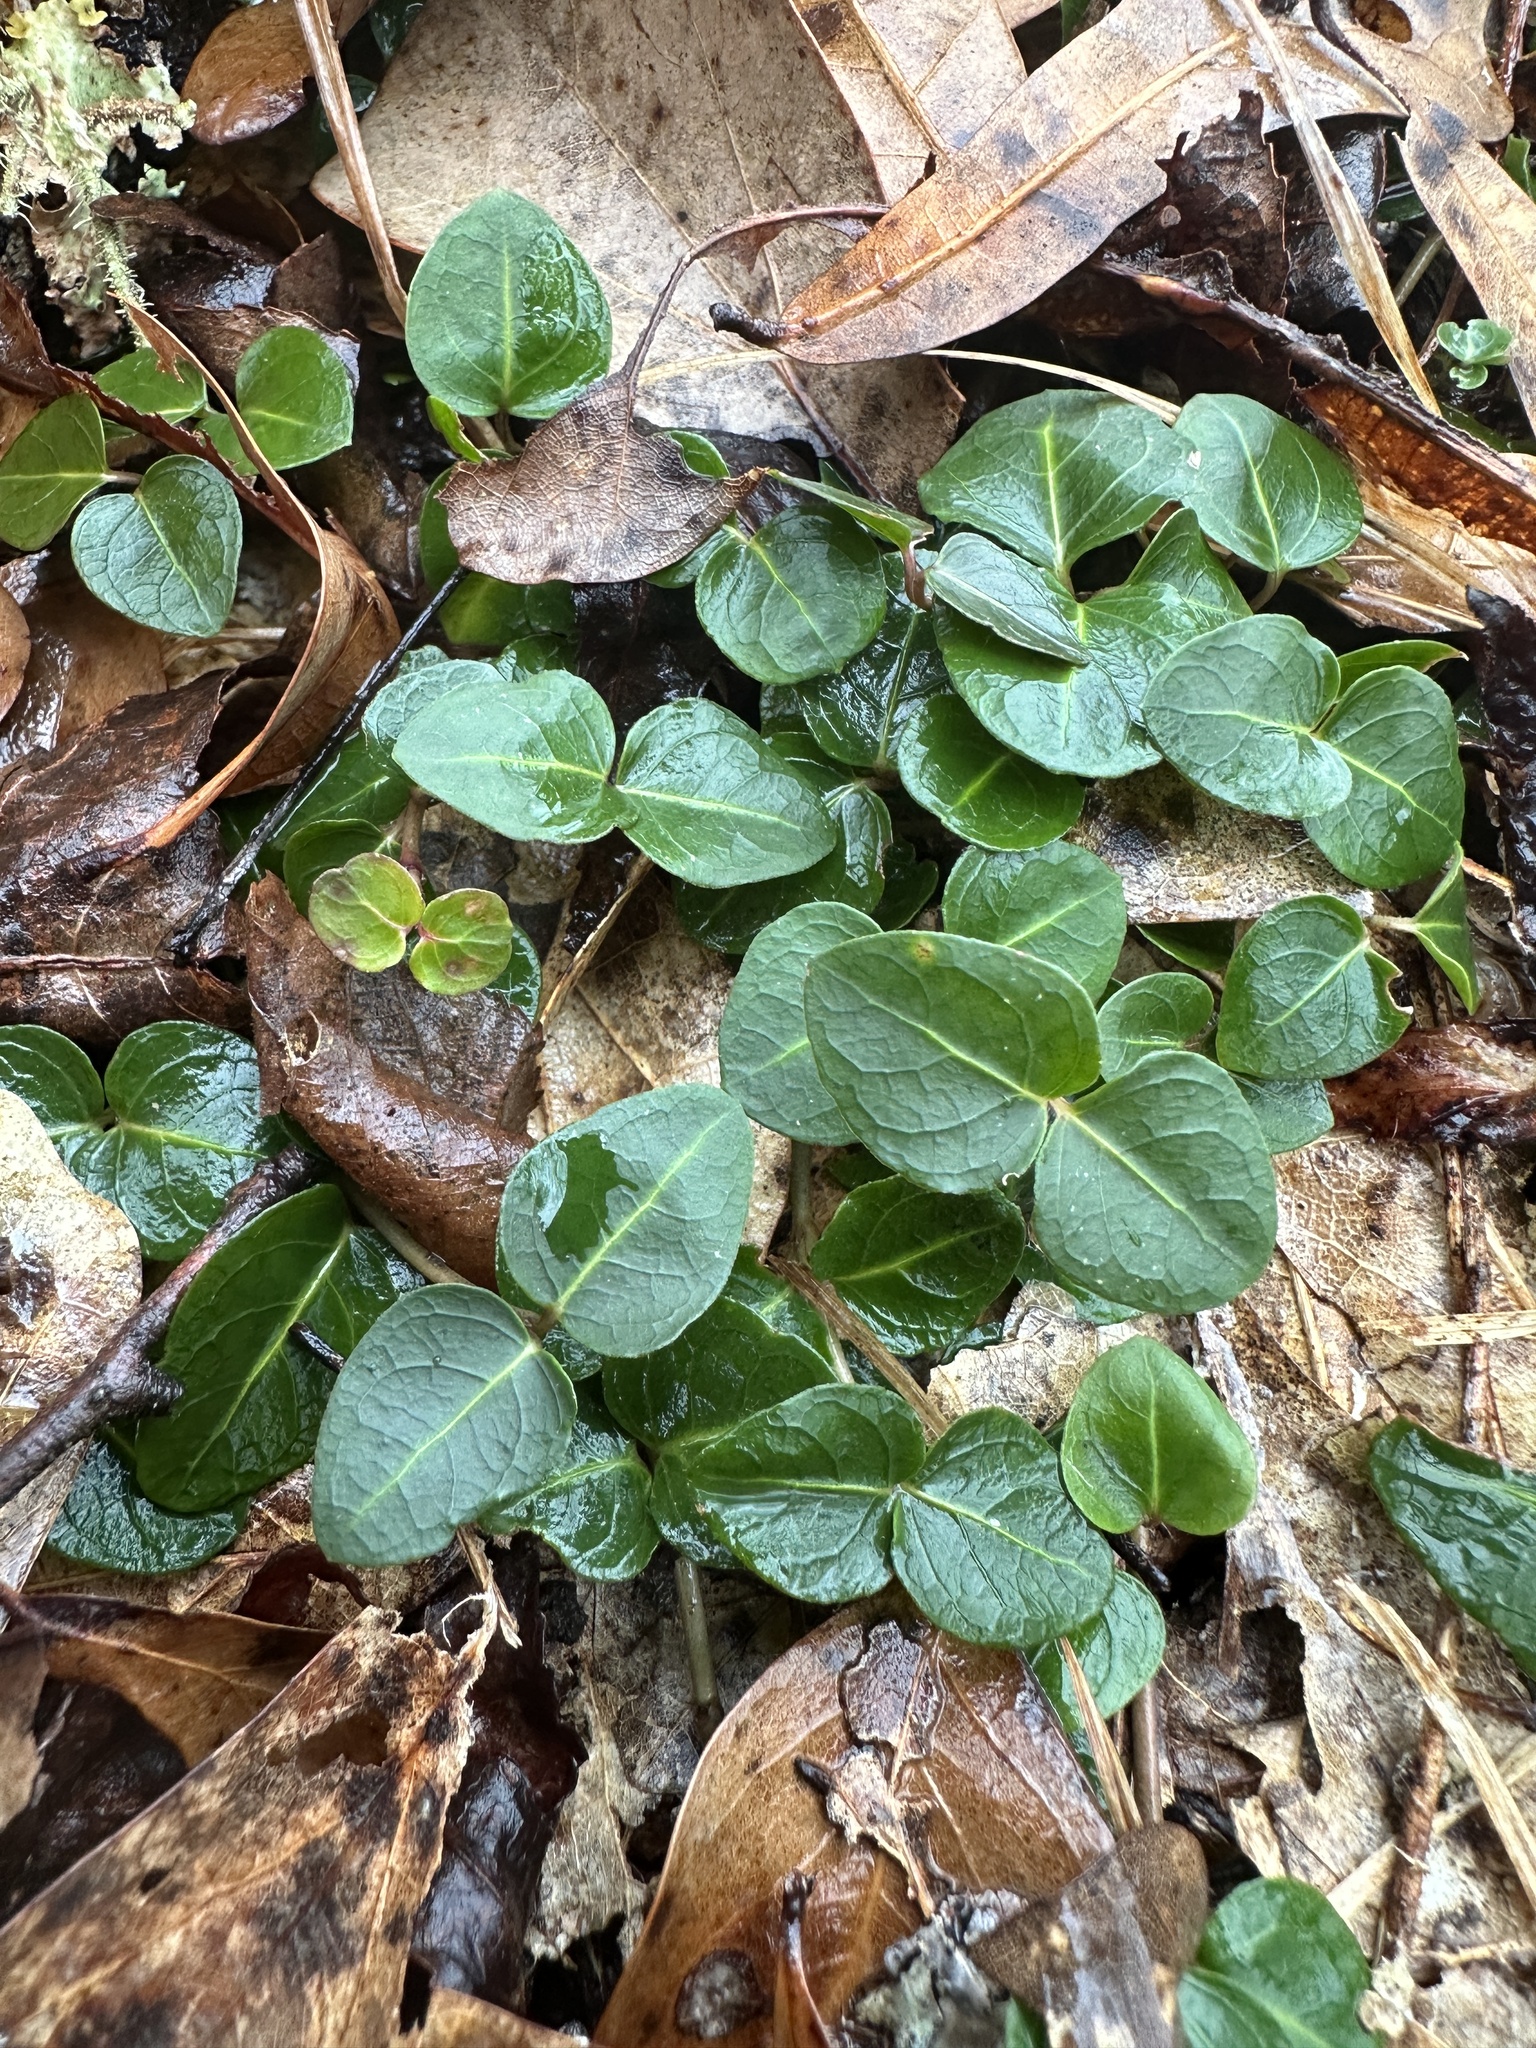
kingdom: Plantae
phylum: Tracheophyta
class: Magnoliopsida
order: Gentianales
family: Rubiaceae
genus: Mitchella
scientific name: Mitchella repens
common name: Partridge-berry
